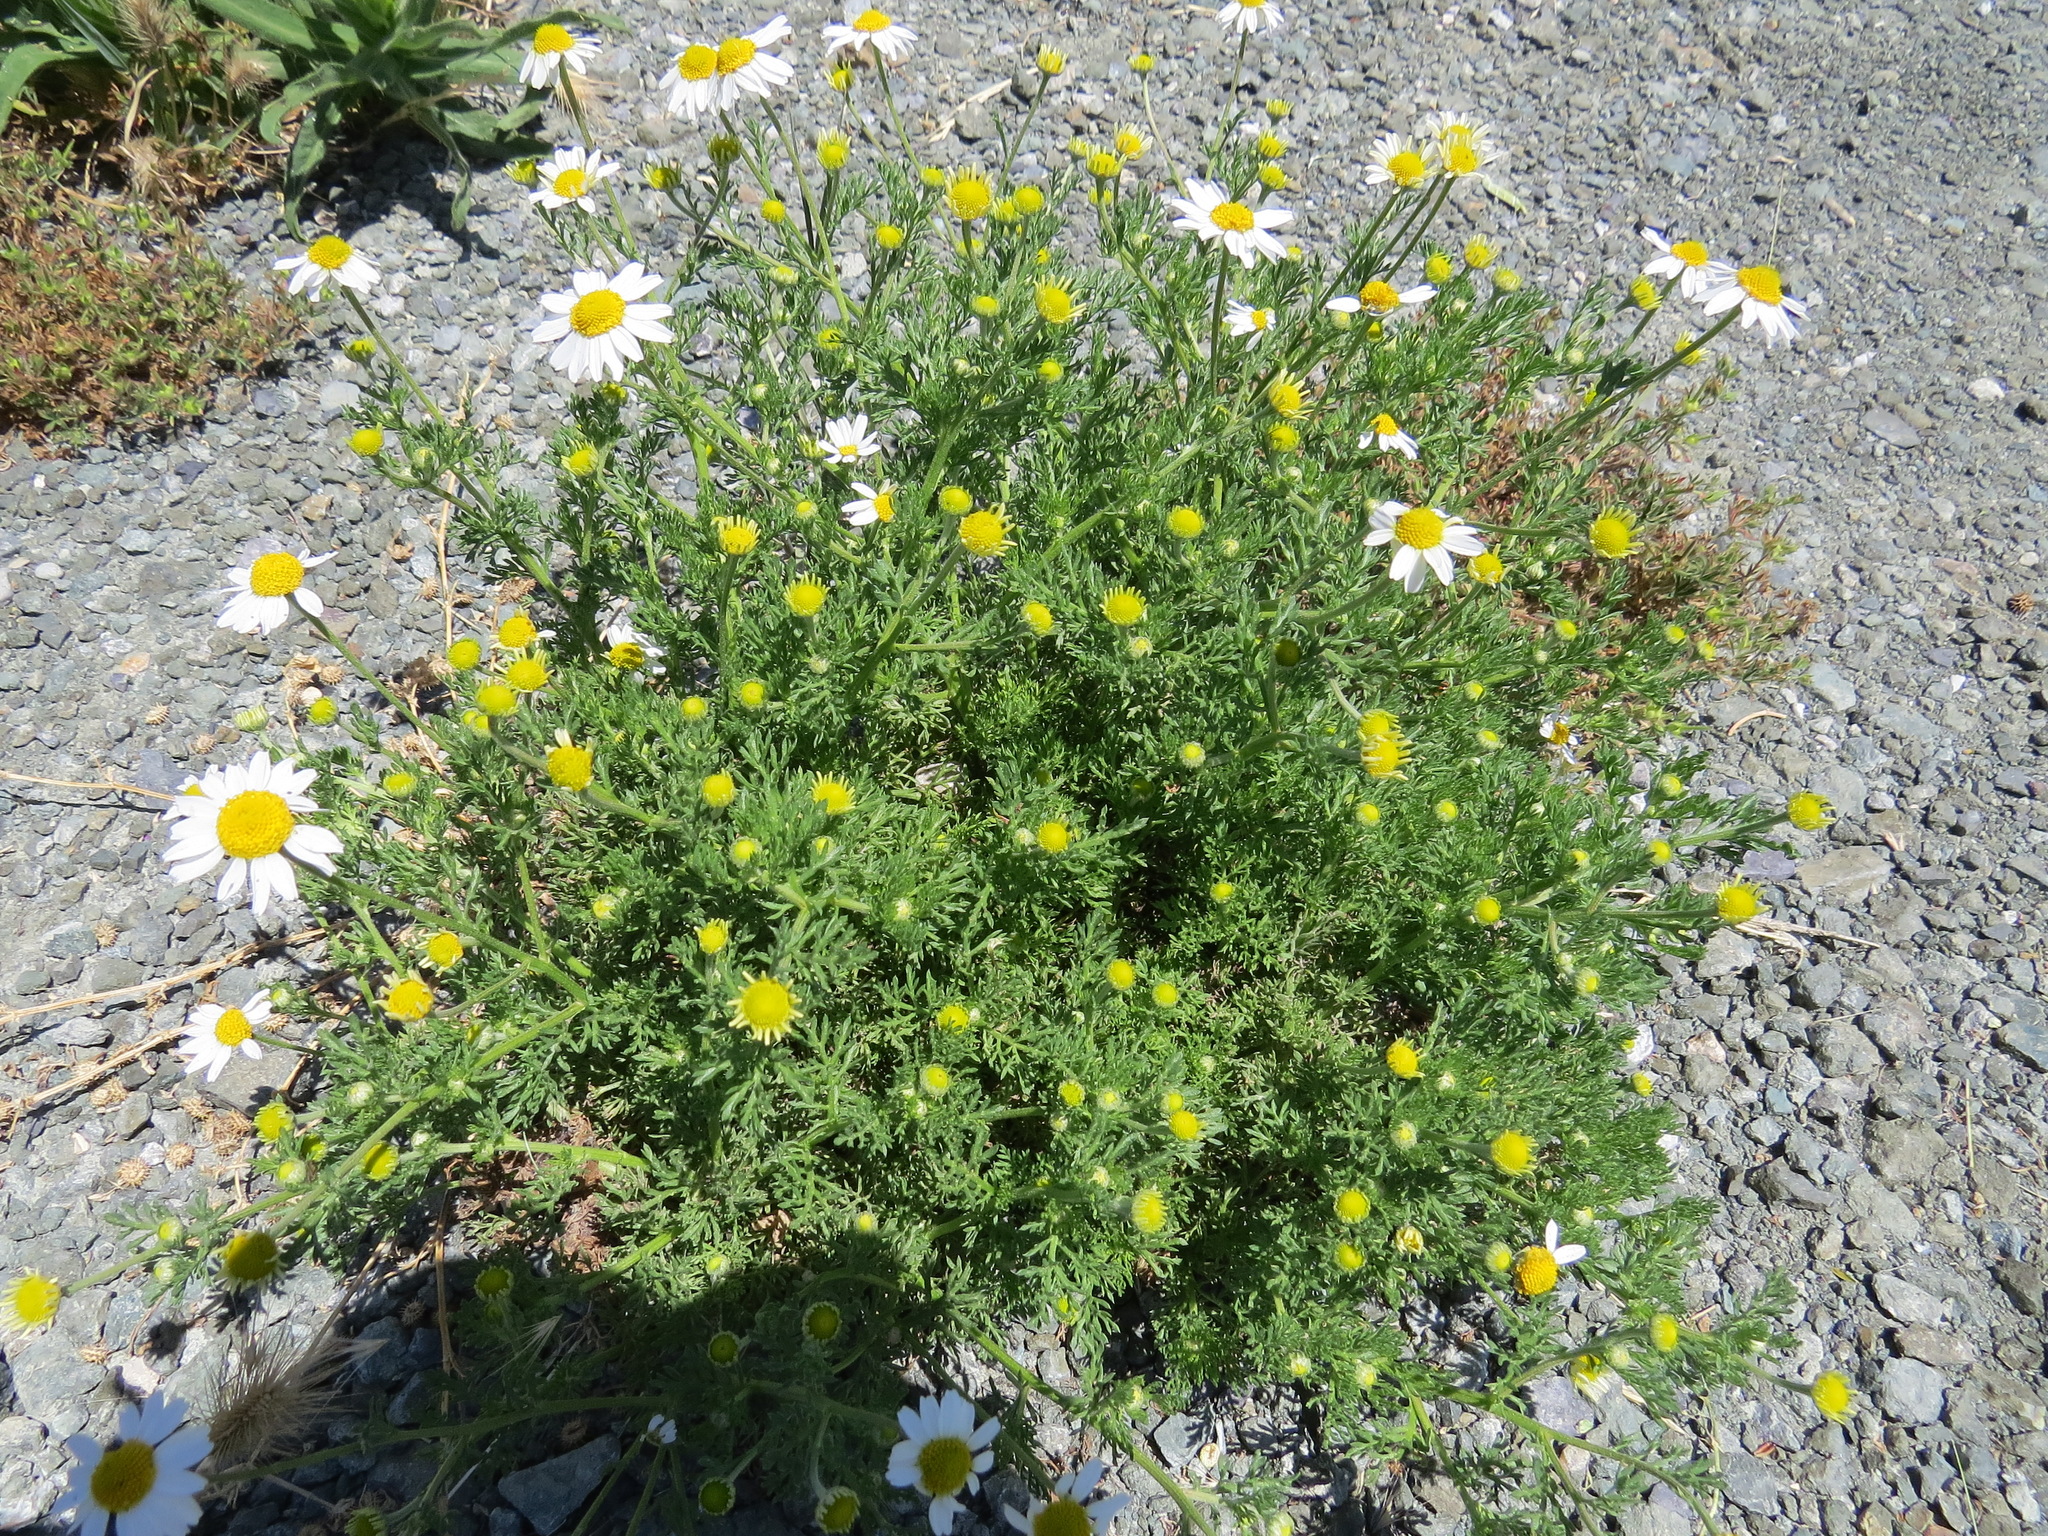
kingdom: Plantae
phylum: Tracheophyta
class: Magnoliopsida
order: Asterales
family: Asteraceae
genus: Anthemis
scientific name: Anthemis cotula
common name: Stinking chamomile
